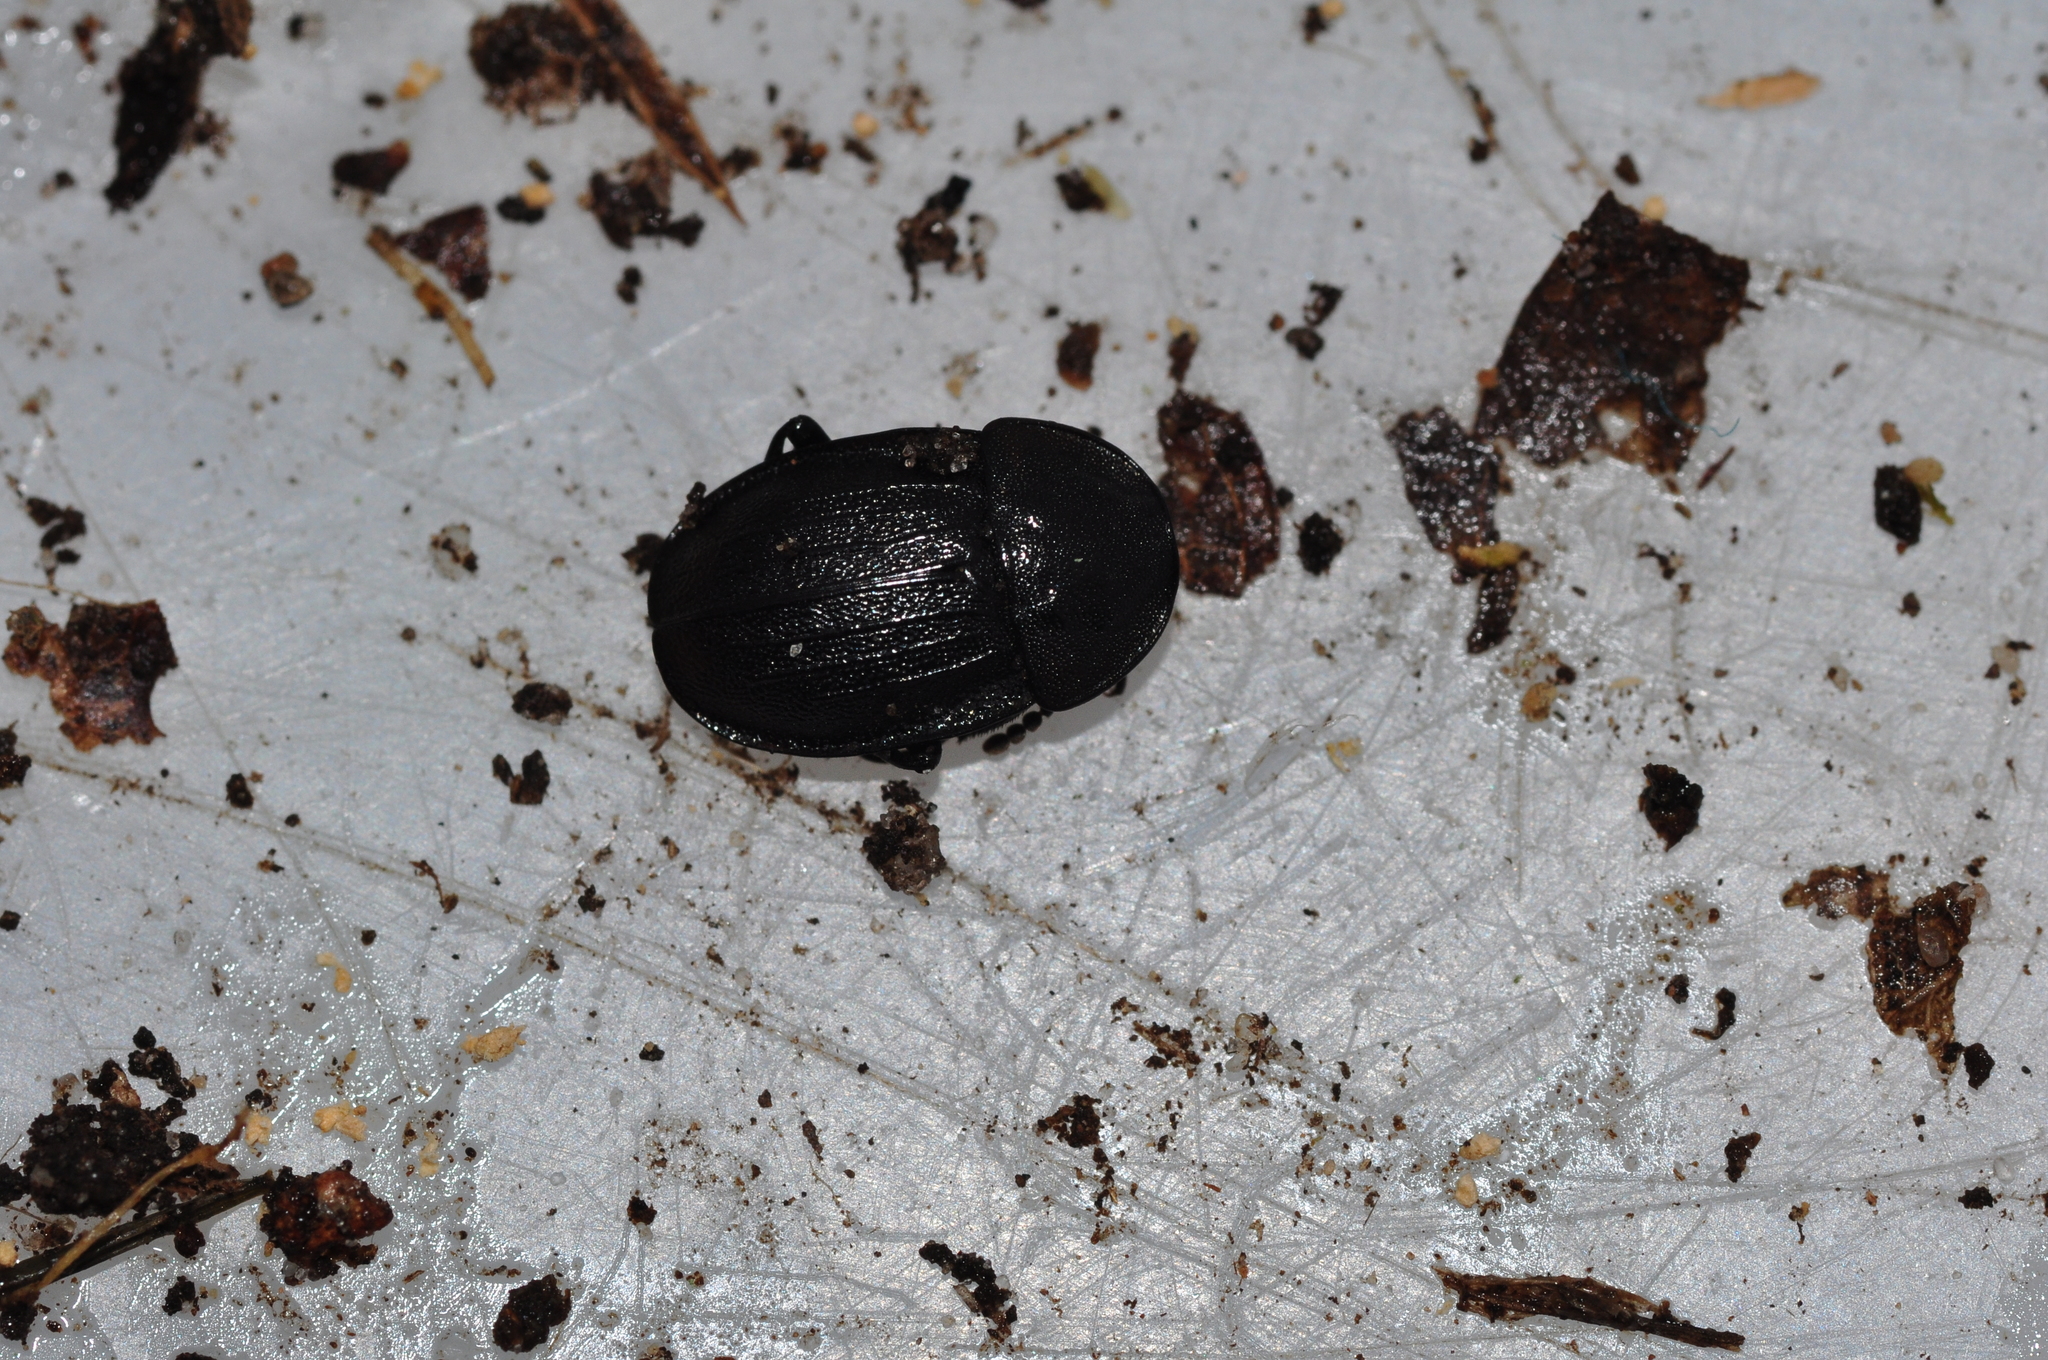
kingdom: Animalia
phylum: Arthropoda
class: Insecta
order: Coleoptera
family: Staphylinidae
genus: Silpha
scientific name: Silpha atrata
